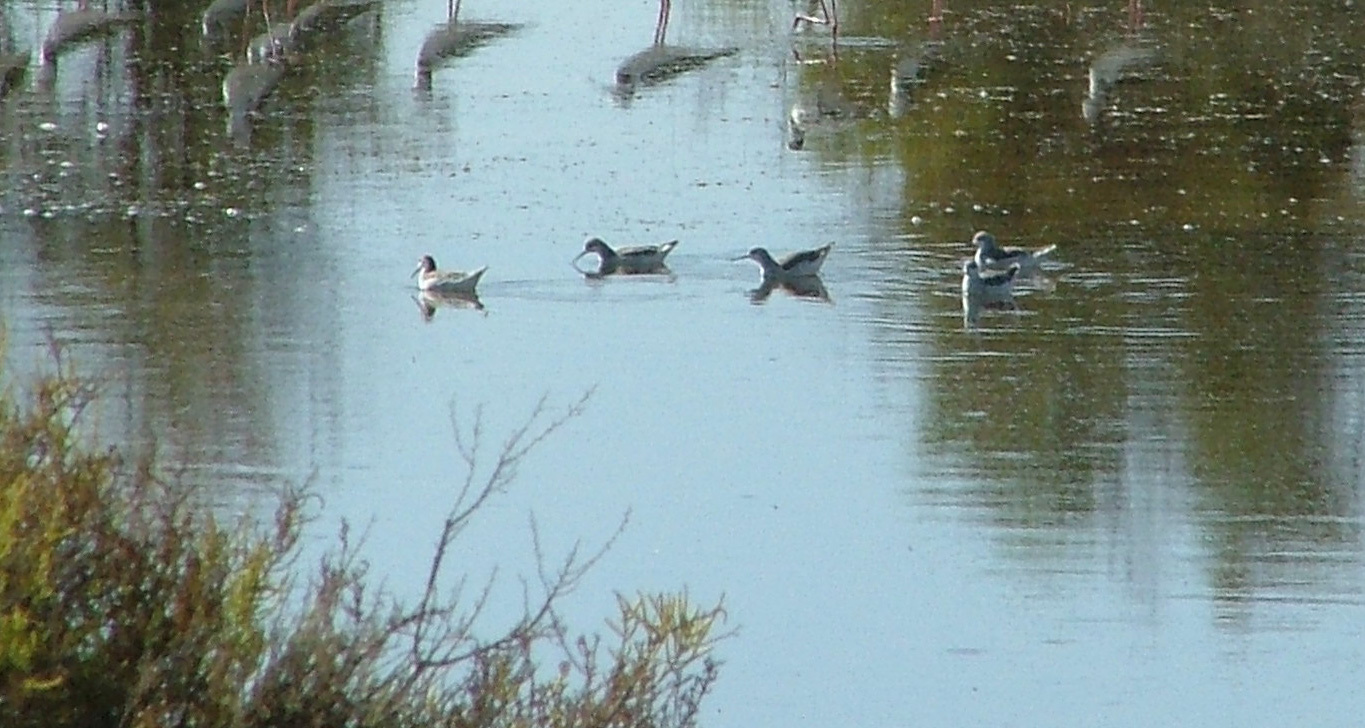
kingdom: Animalia
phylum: Chordata
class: Aves
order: Charadriiformes
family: Scolopacidae
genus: Phalaropus
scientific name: Phalaropus tricolor
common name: Wilson's phalarope
